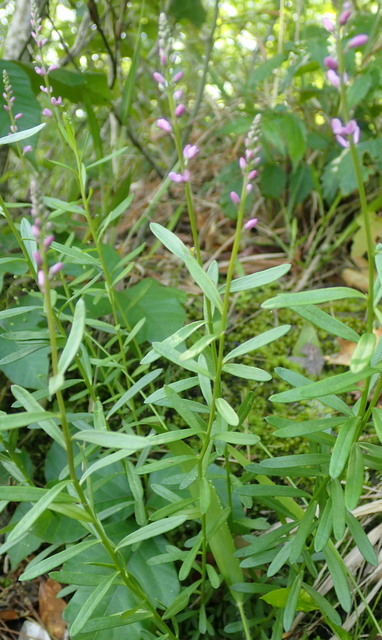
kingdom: Plantae
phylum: Tracheophyta
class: Magnoliopsida
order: Fabales
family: Polygalaceae
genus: Polygala
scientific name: Polygala polygama
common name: Bitter milkwort
